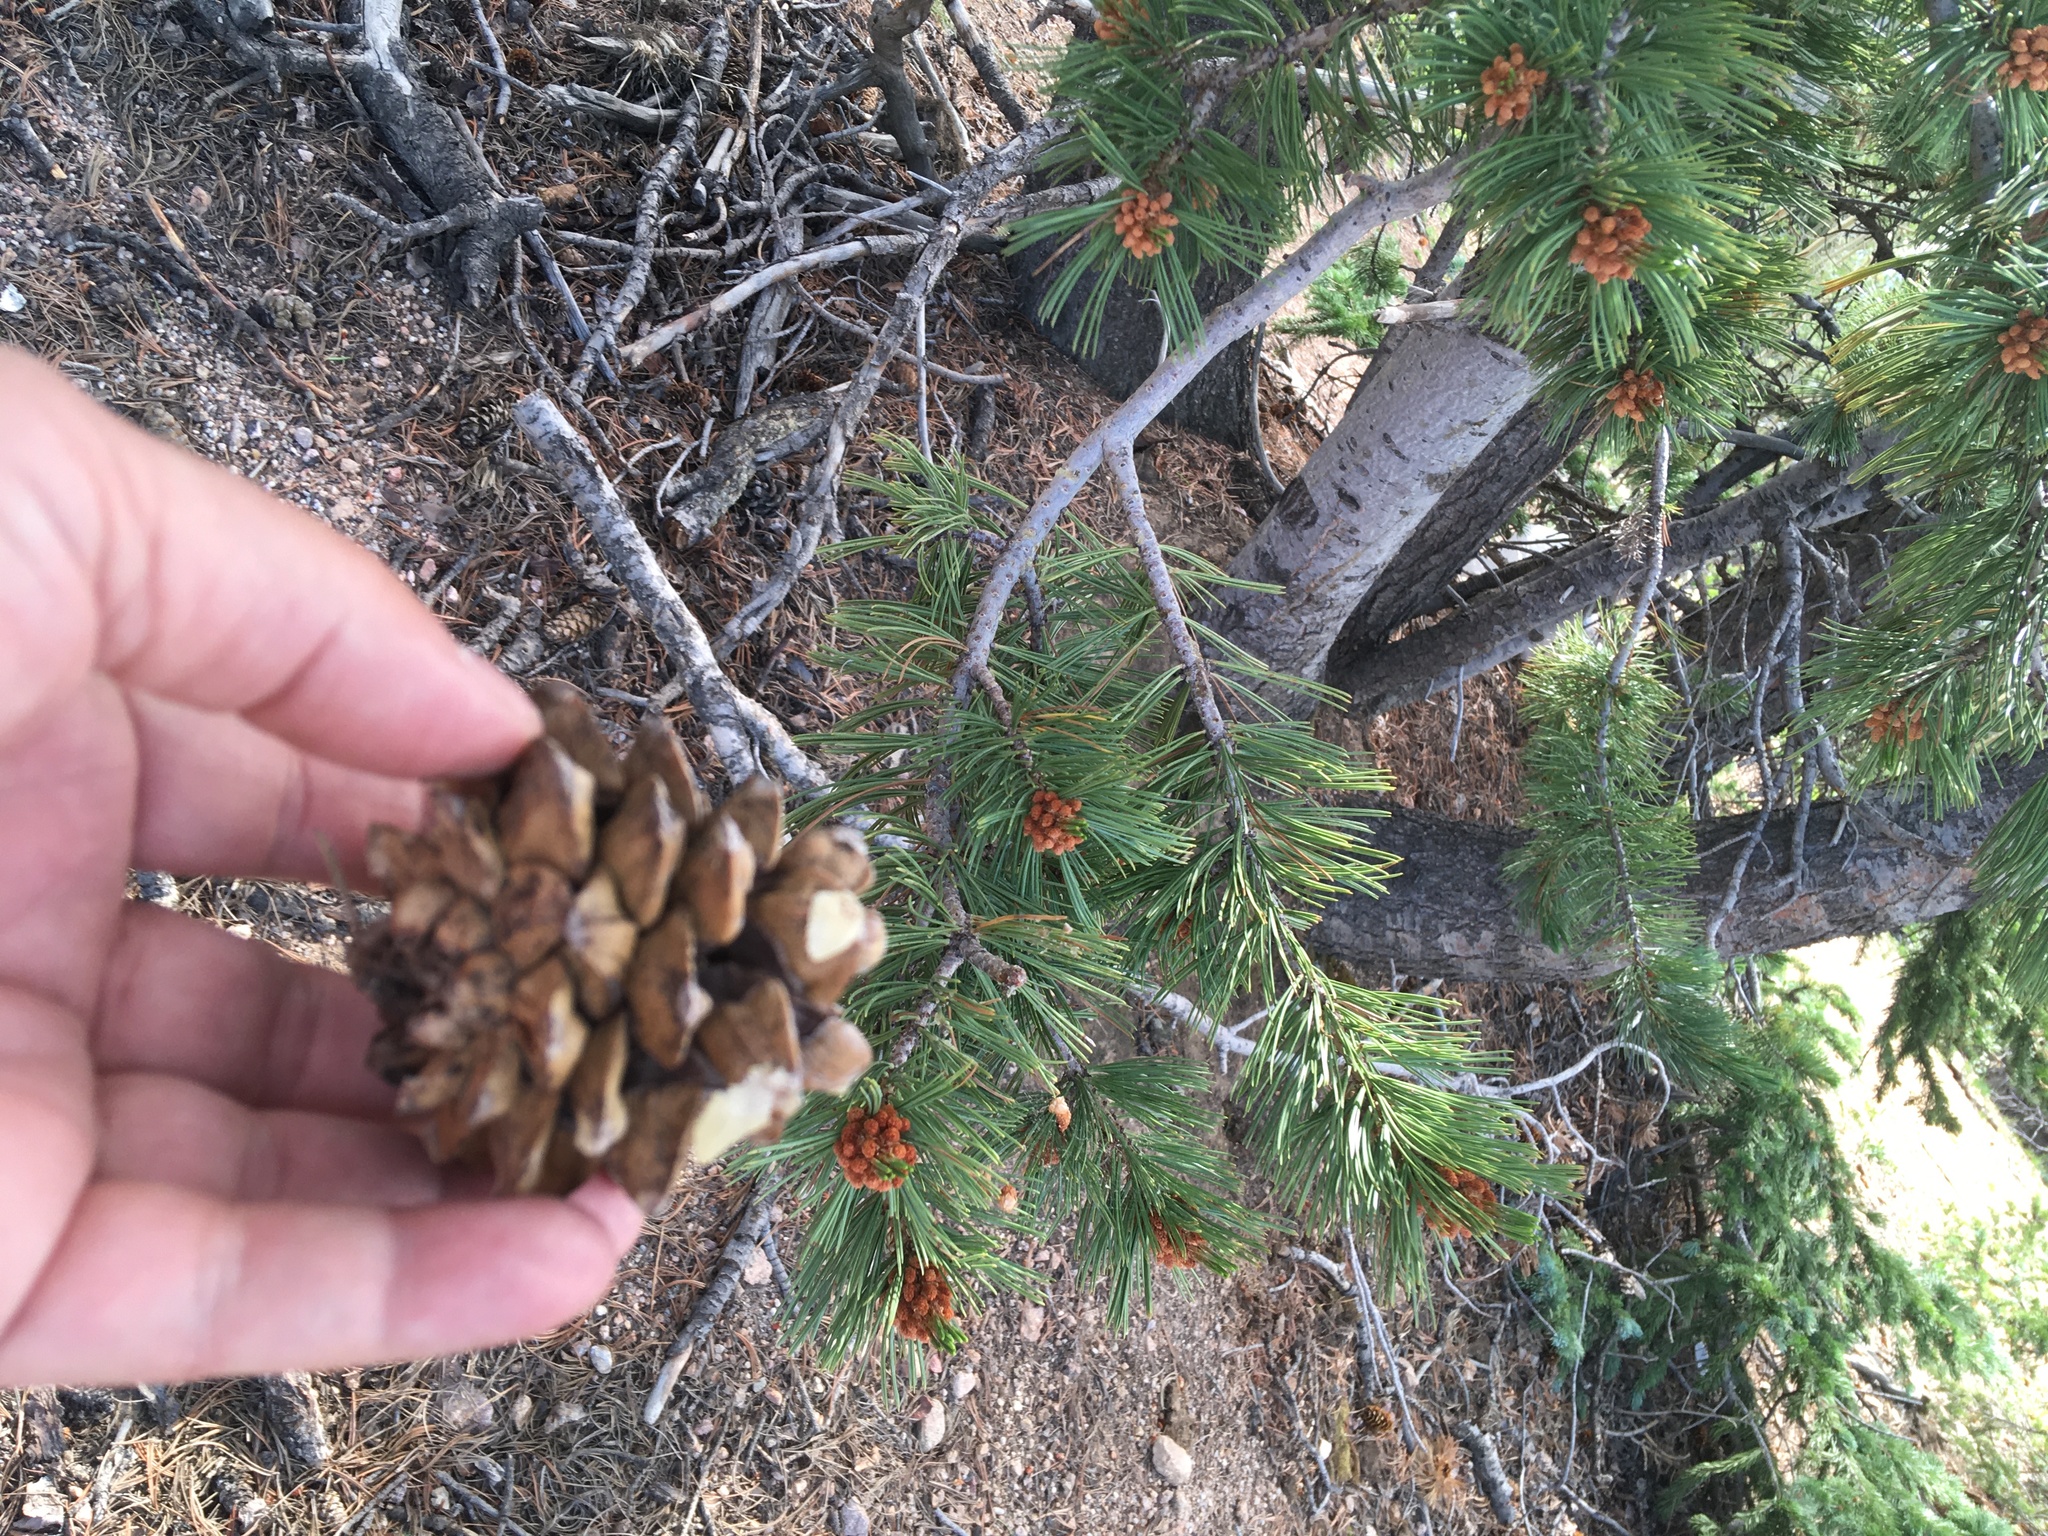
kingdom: Plantae
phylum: Tracheophyta
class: Pinopsida
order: Pinales
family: Pinaceae
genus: Pinus
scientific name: Pinus flexilis
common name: Limber pine
